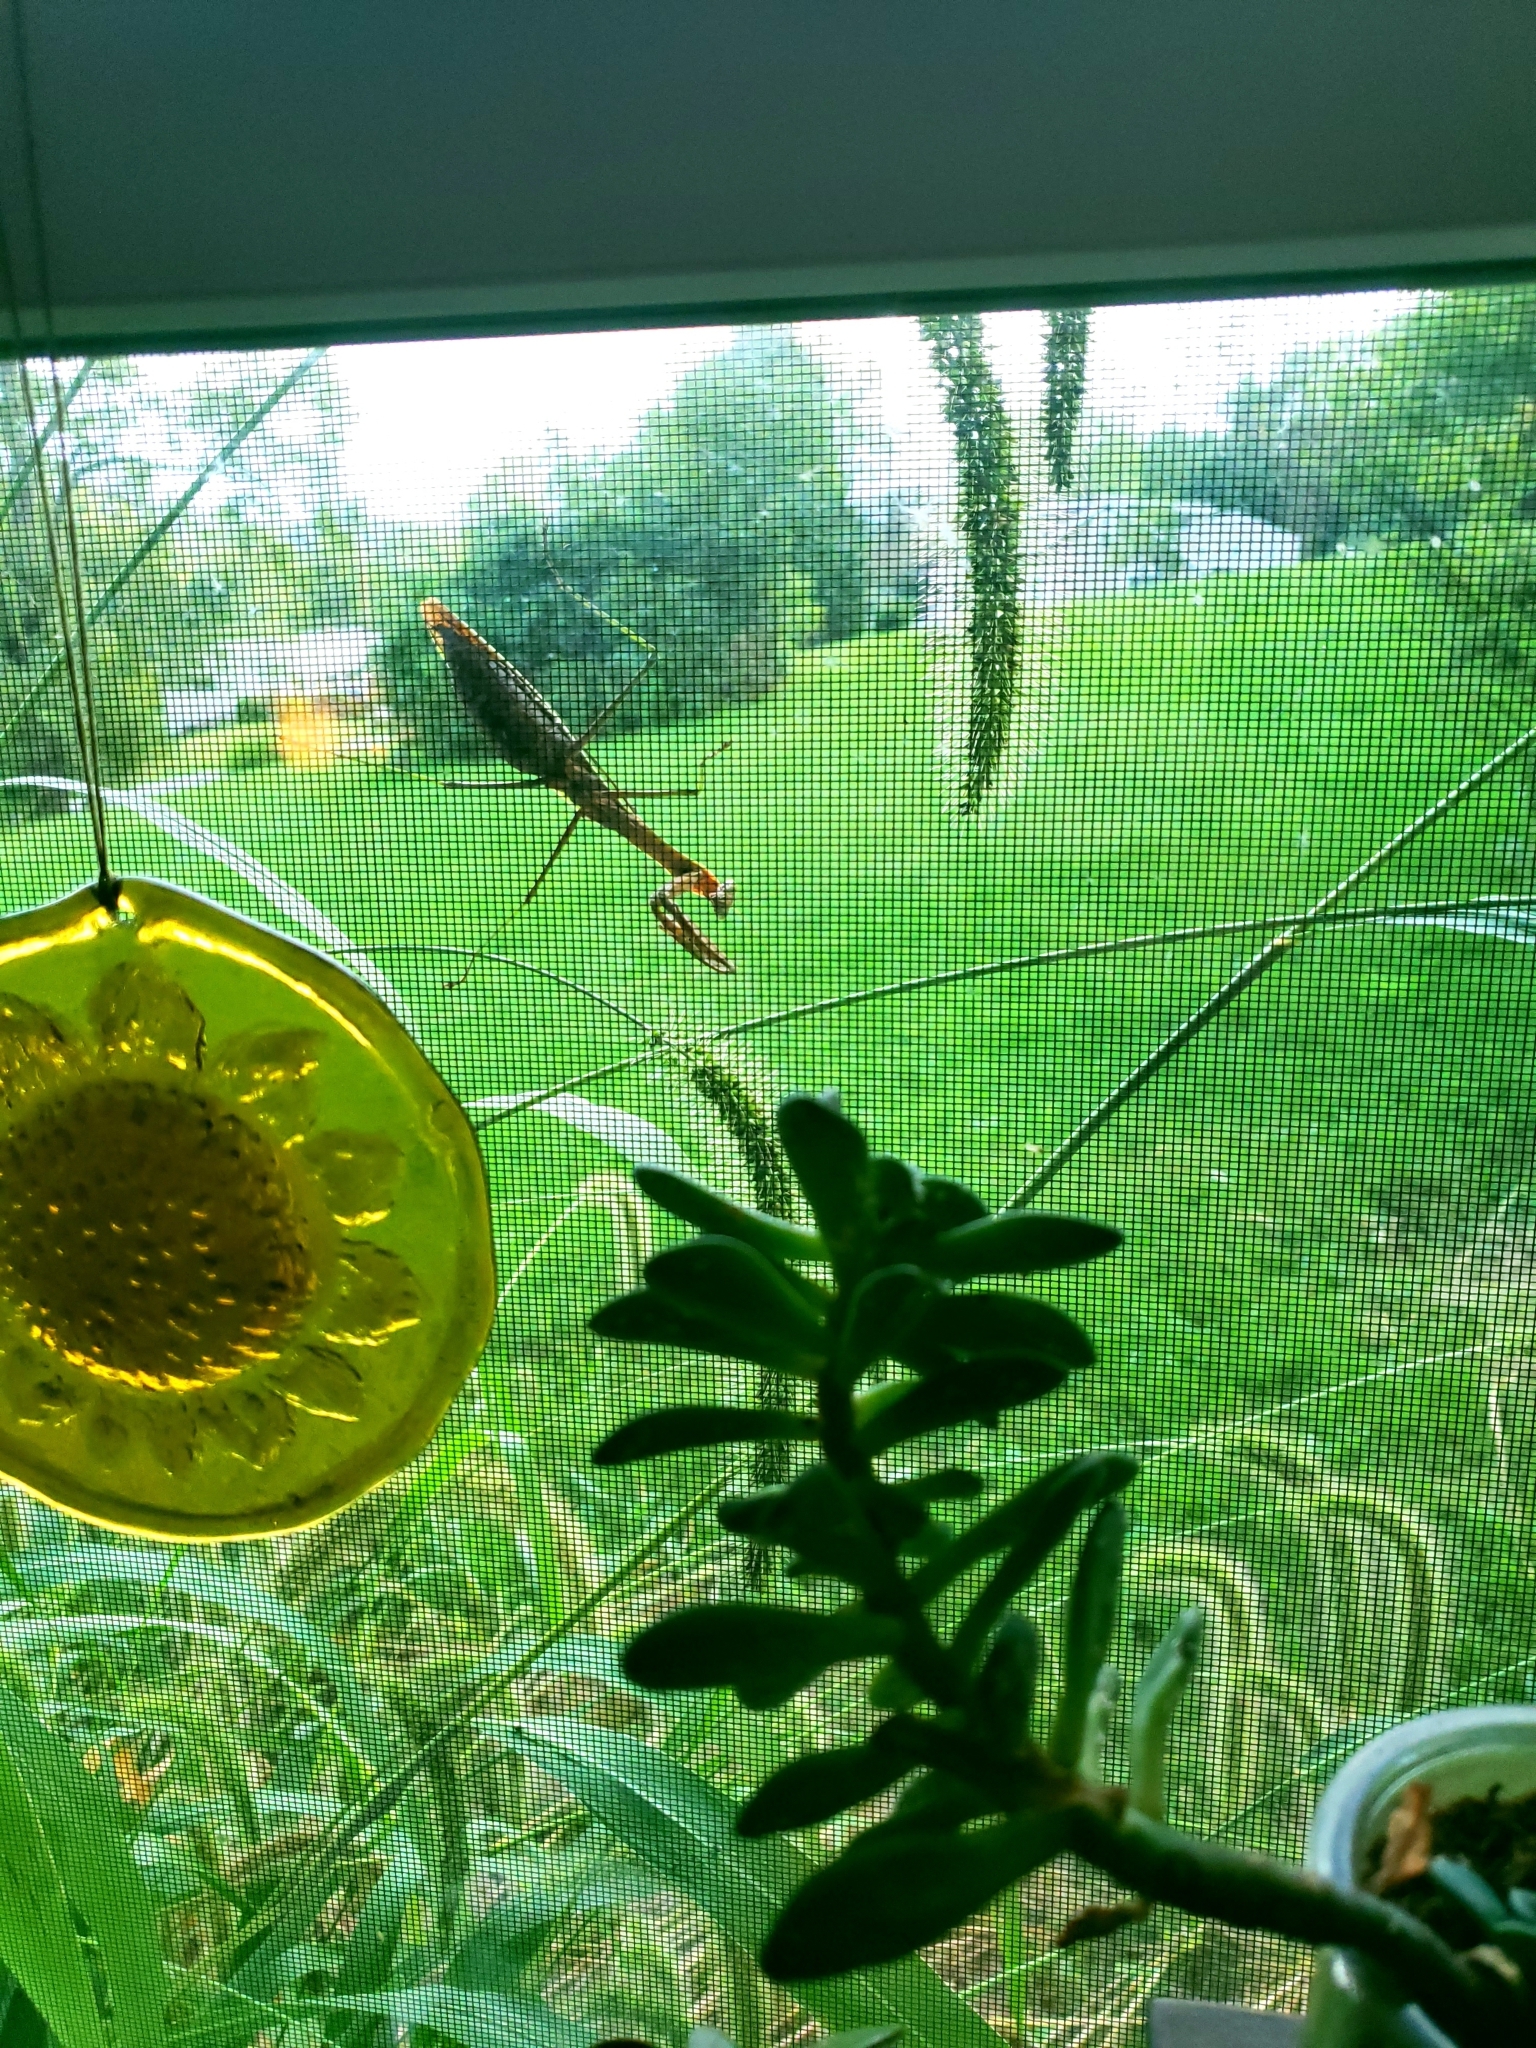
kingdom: Animalia
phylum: Arthropoda
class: Insecta
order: Mantodea
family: Mantidae
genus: Stagmomantis
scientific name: Stagmomantis carolina
